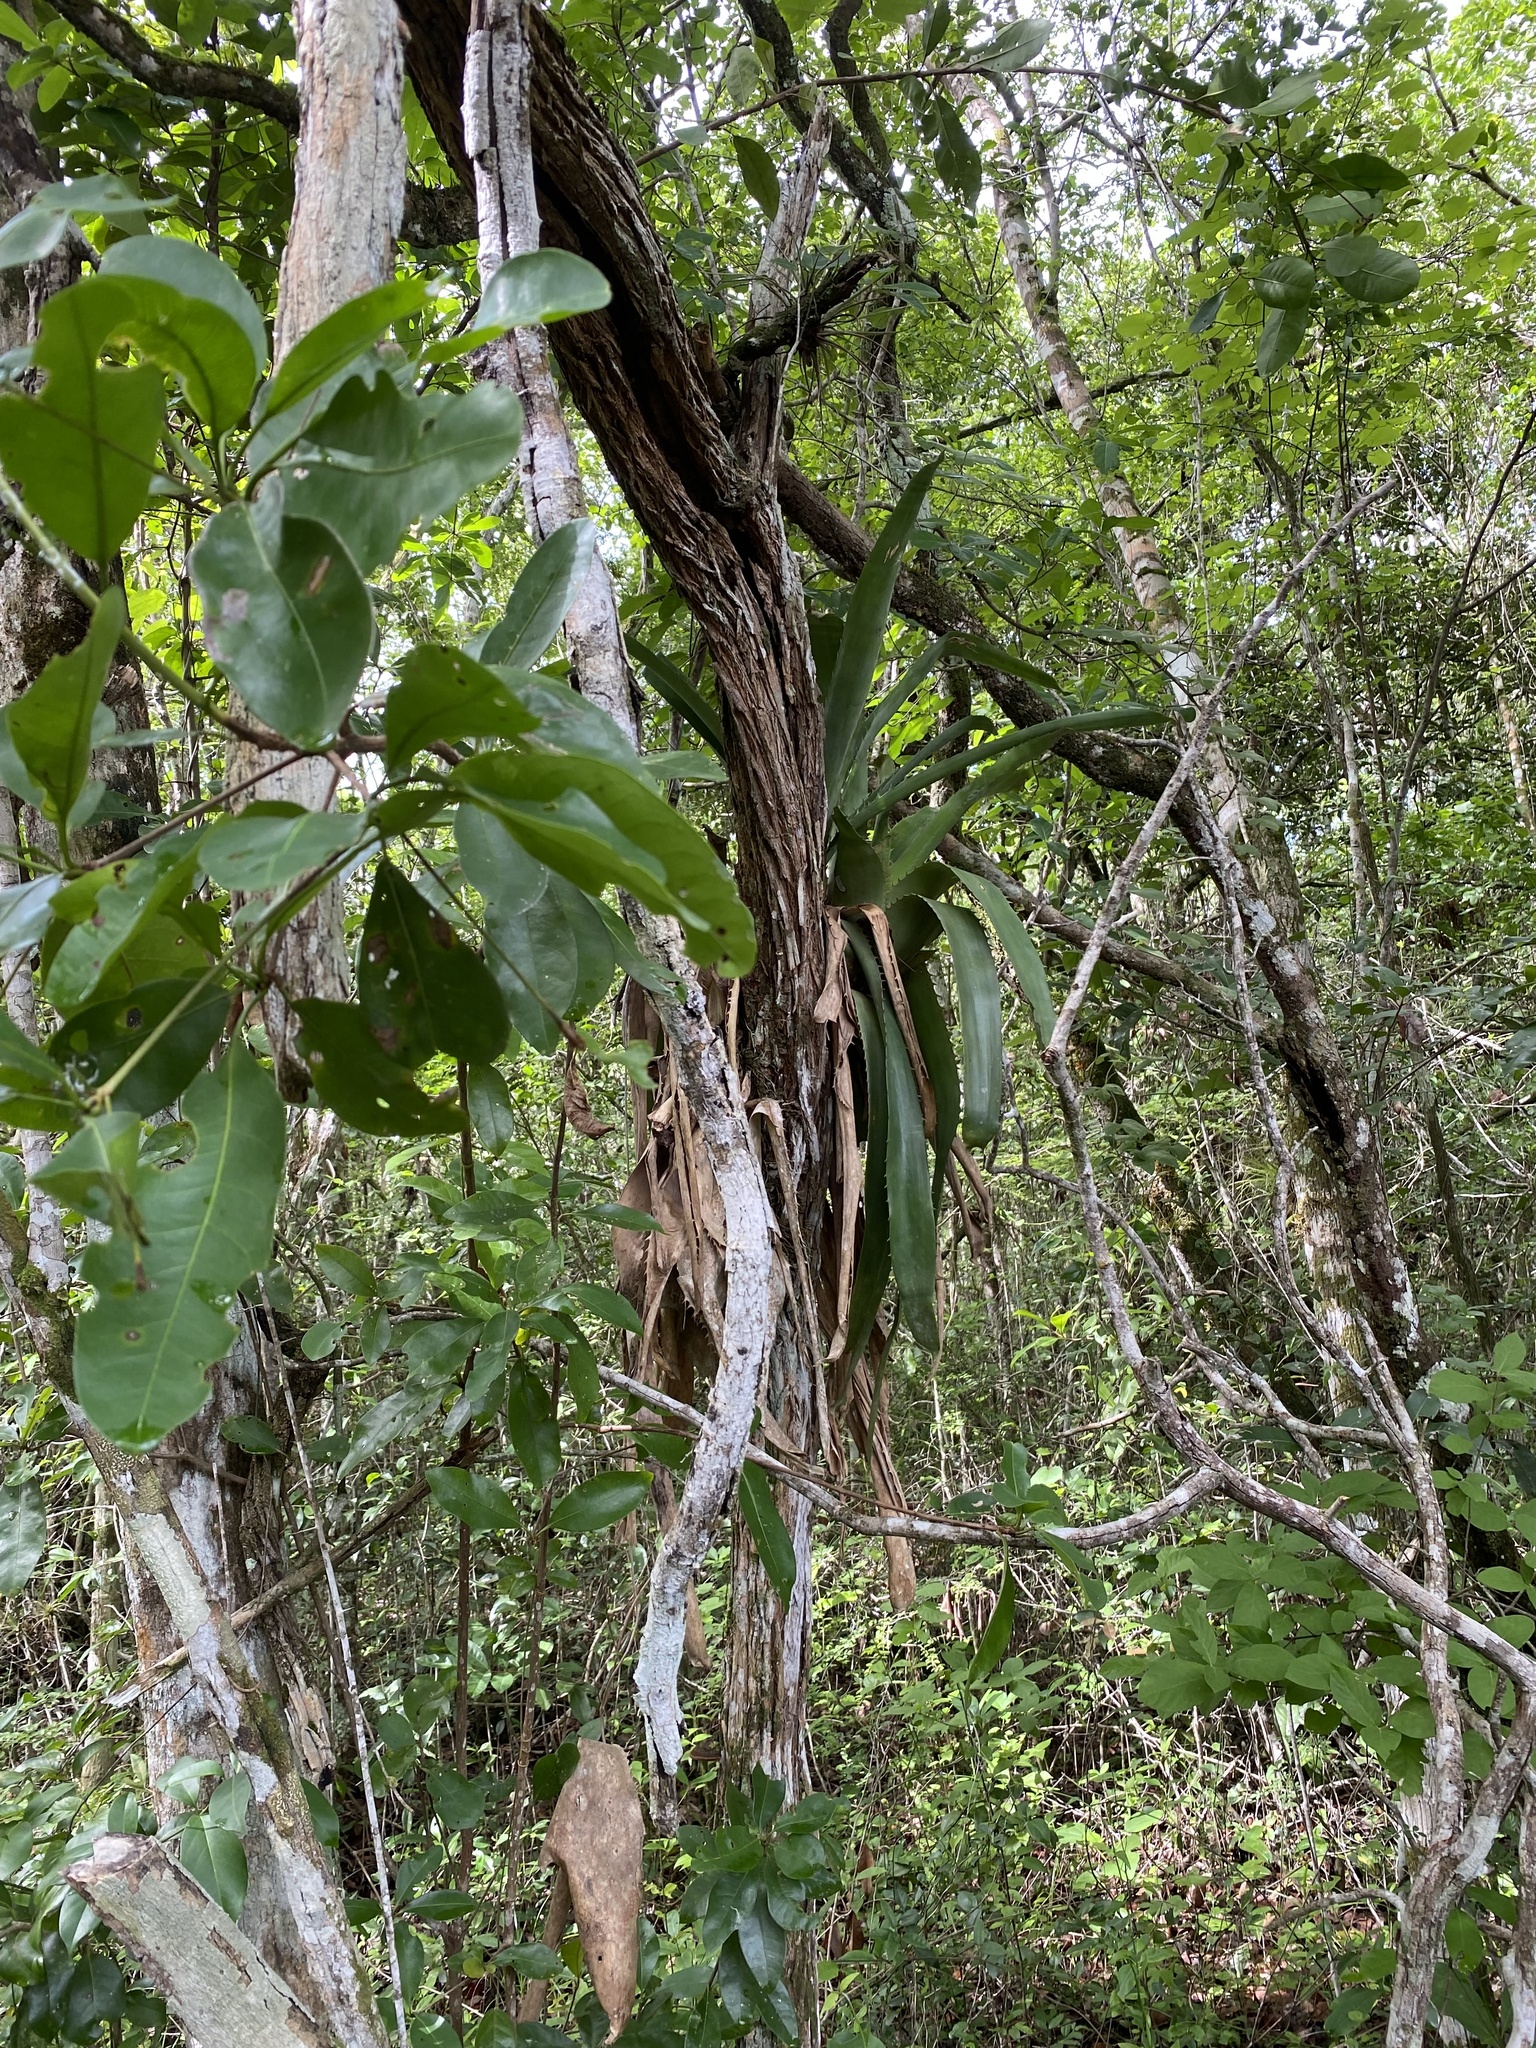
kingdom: Plantae
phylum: Tracheophyta
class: Liliopsida
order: Poales
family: Bromeliaceae
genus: Aechmea
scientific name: Aechmea bracteata
